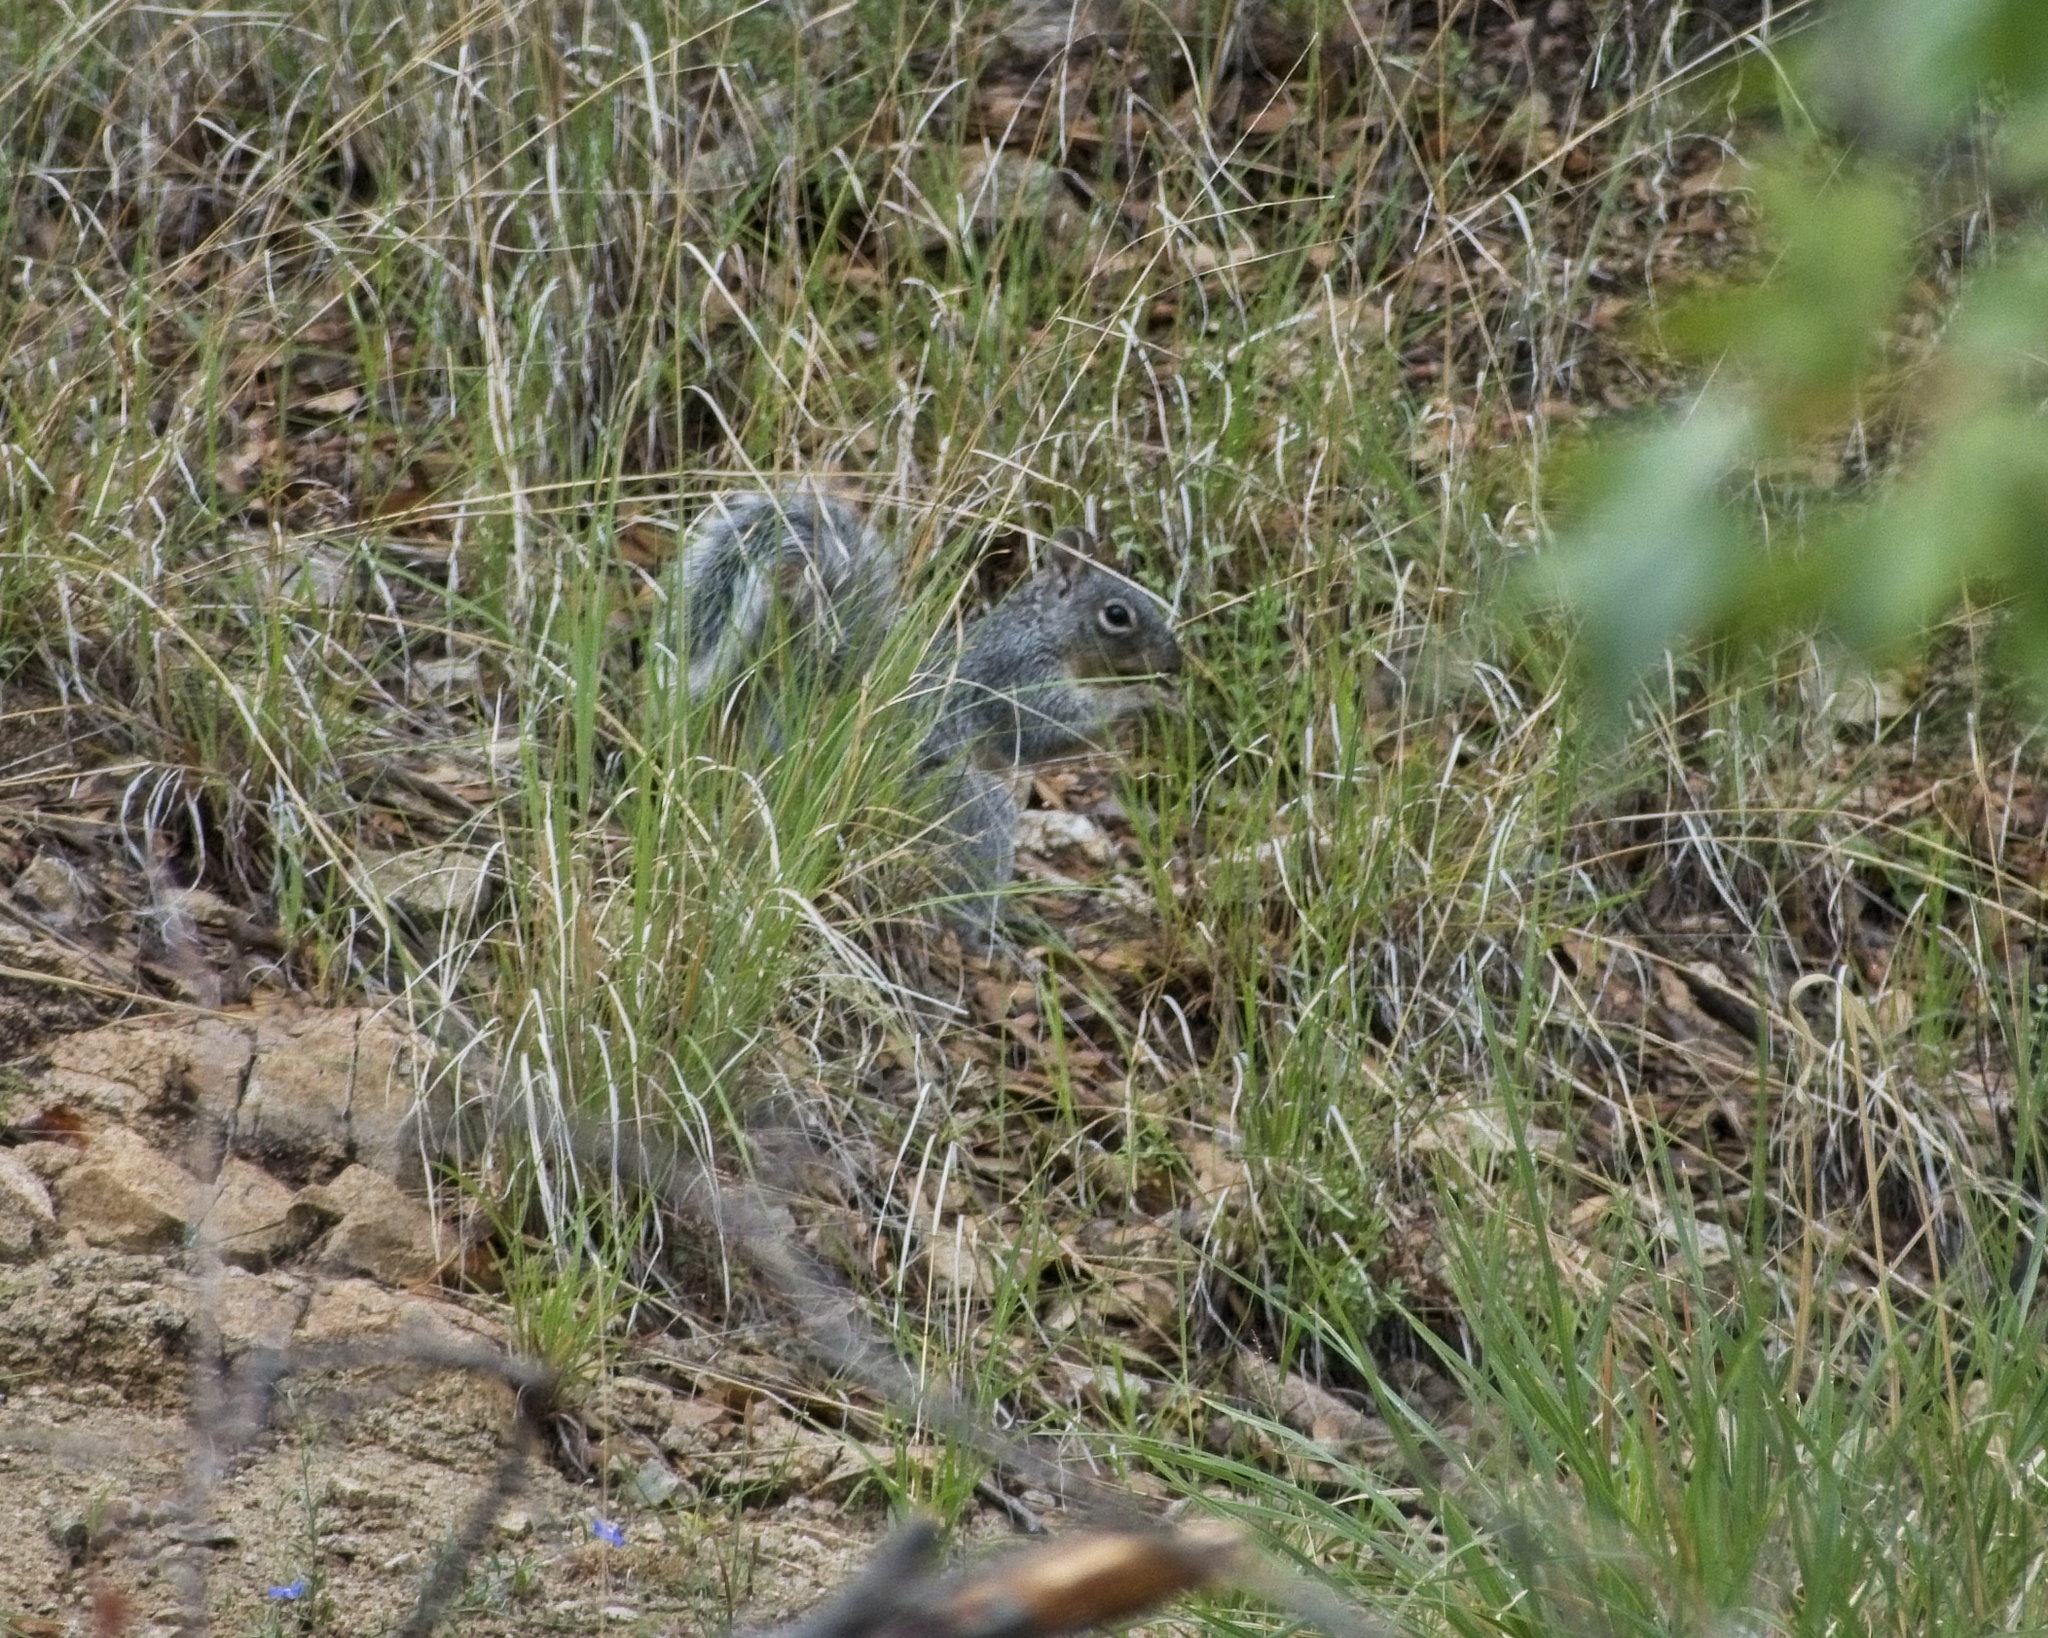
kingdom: Animalia
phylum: Chordata
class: Mammalia
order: Rodentia
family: Sciuridae
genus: Sciurus
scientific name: Sciurus arizonensis
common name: Arizona gray squirrel
